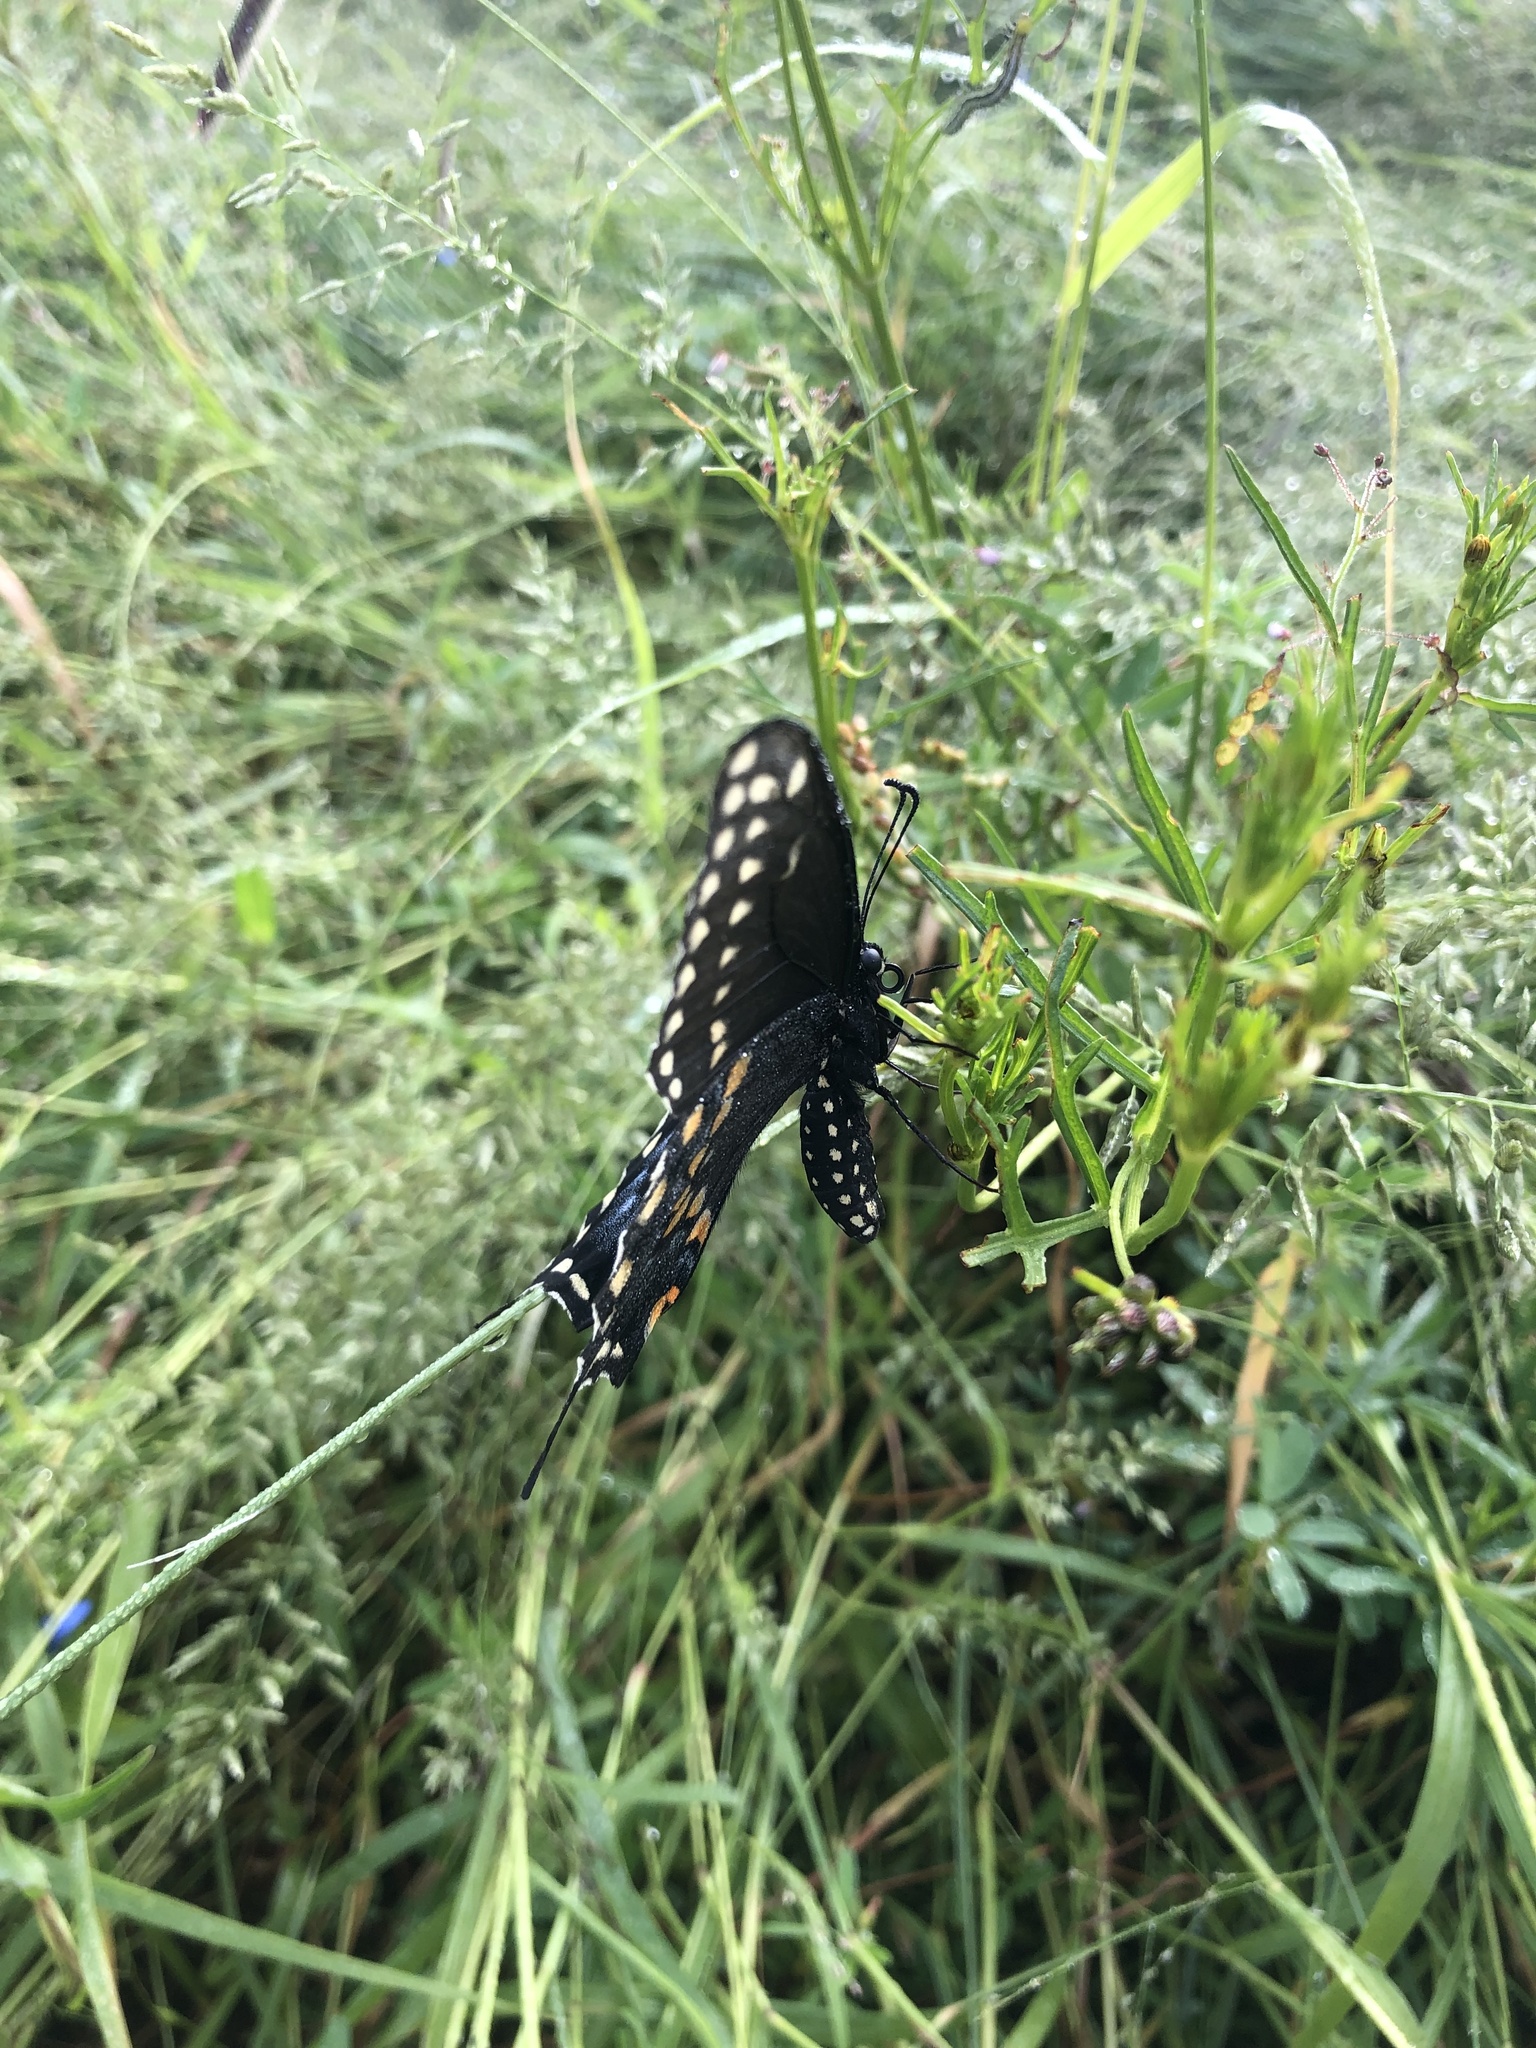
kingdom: Animalia
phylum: Arthropoda
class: Insecta
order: Lepidoptera
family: Papilionidae
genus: Papilio
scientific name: Papilio polyxenes
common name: Black swallowtail
